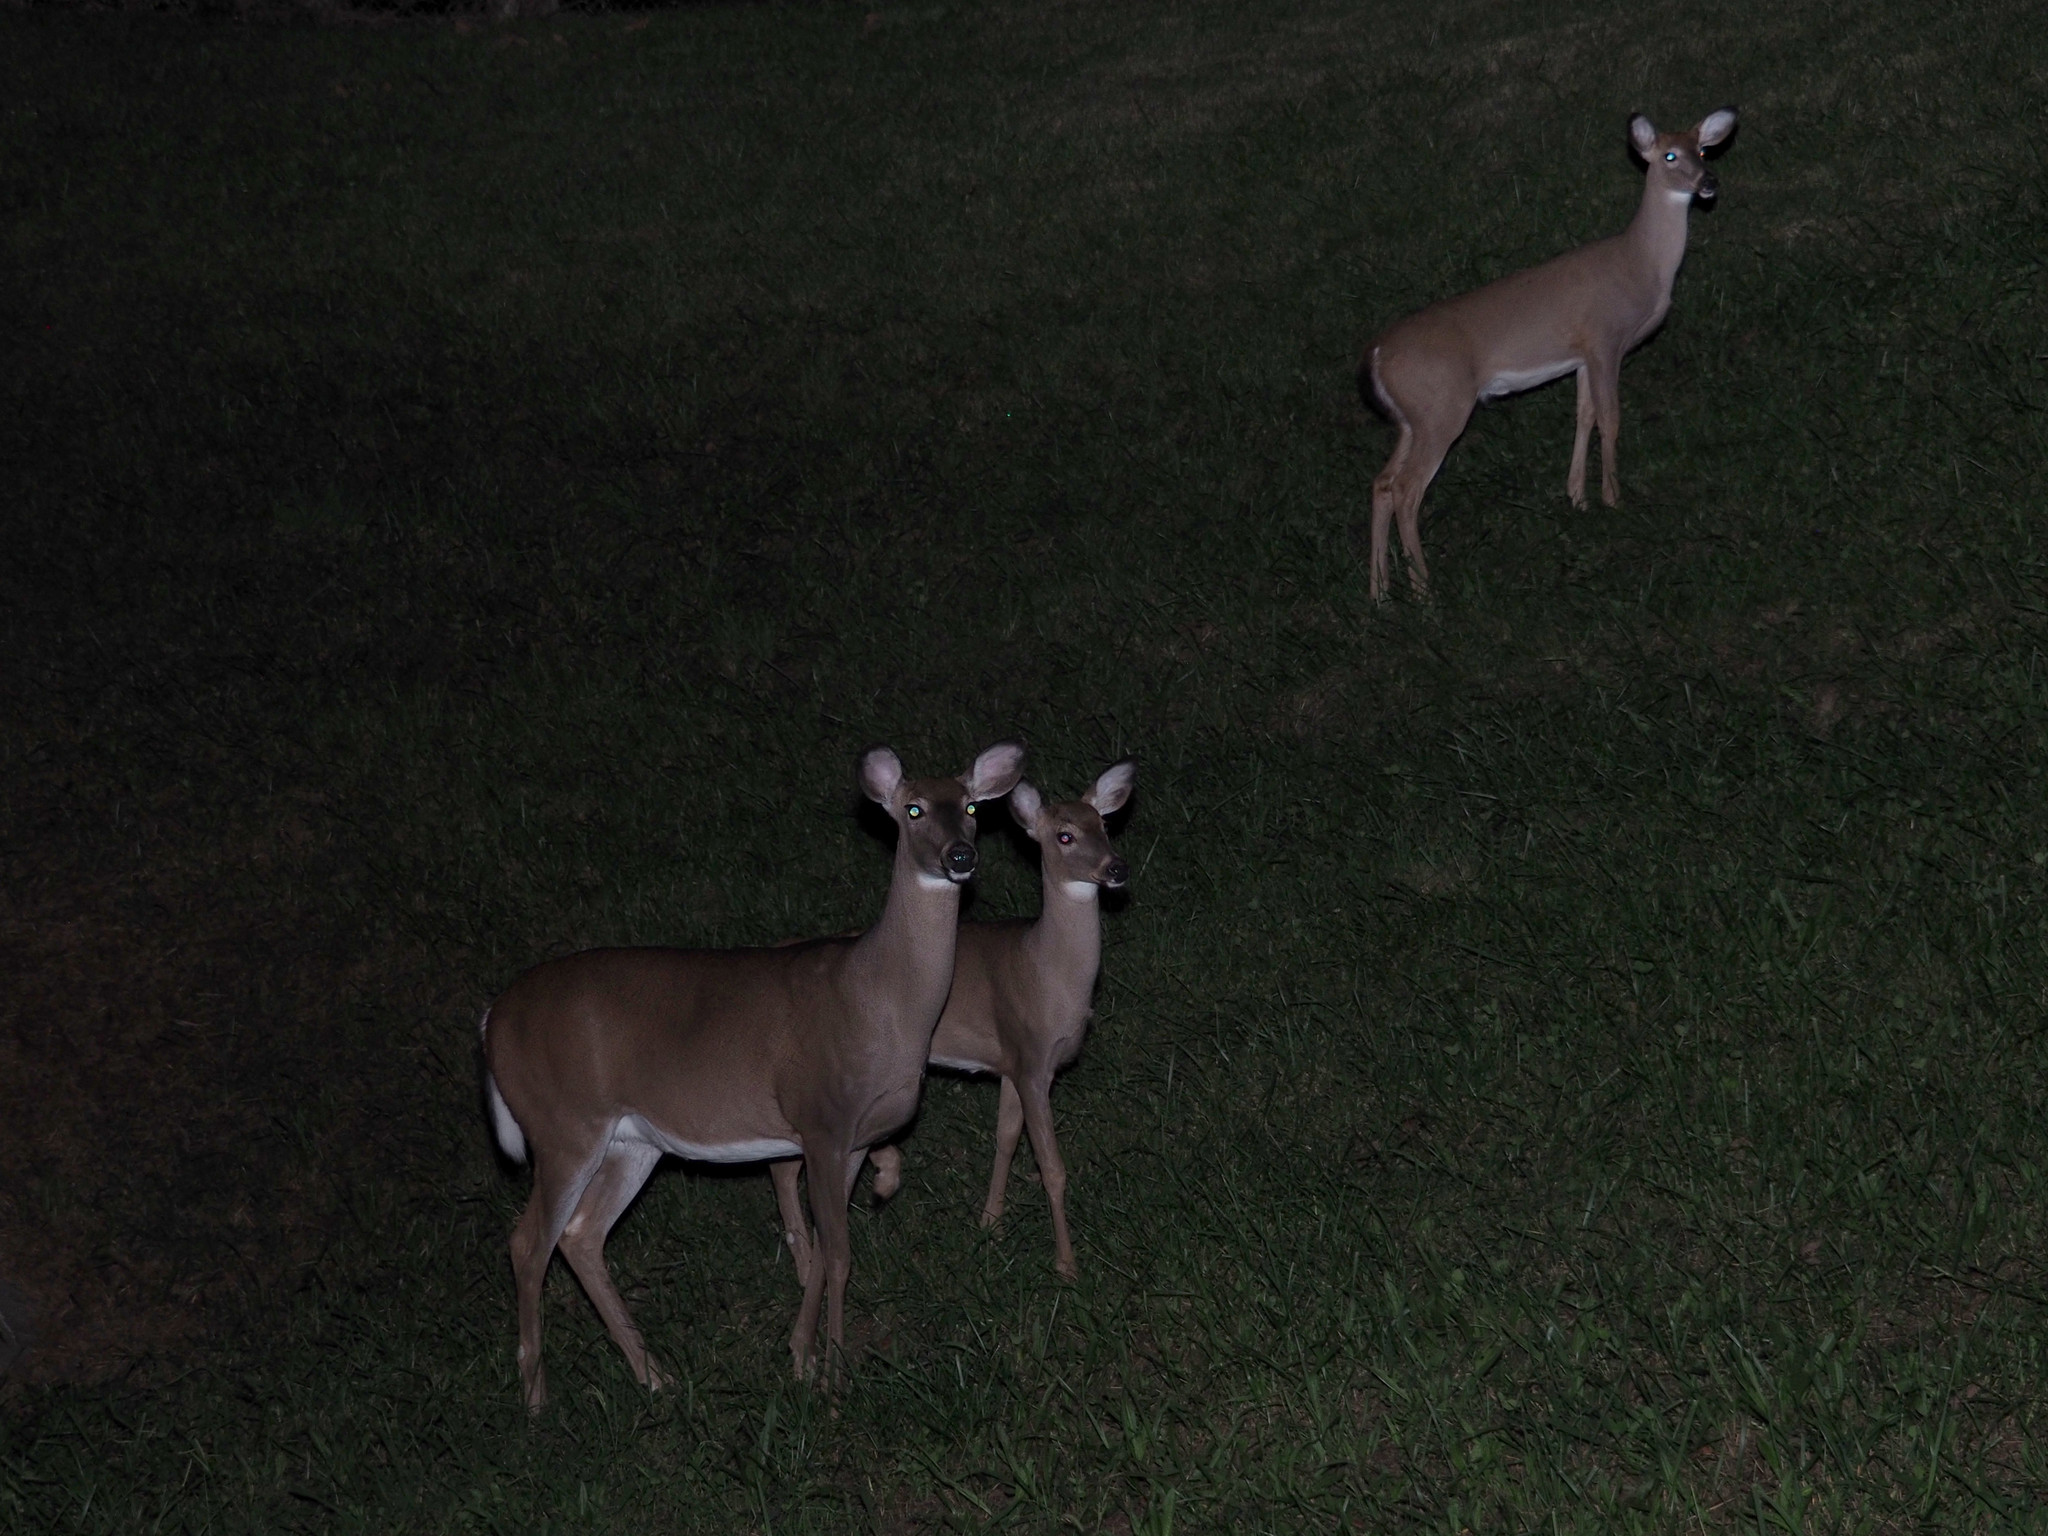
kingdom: Animalia
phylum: Chordata
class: Mammalia
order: Artiodactyla
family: Cervidae
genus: Odocoileus
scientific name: Odocoileus virginianus
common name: White-tailed deer
